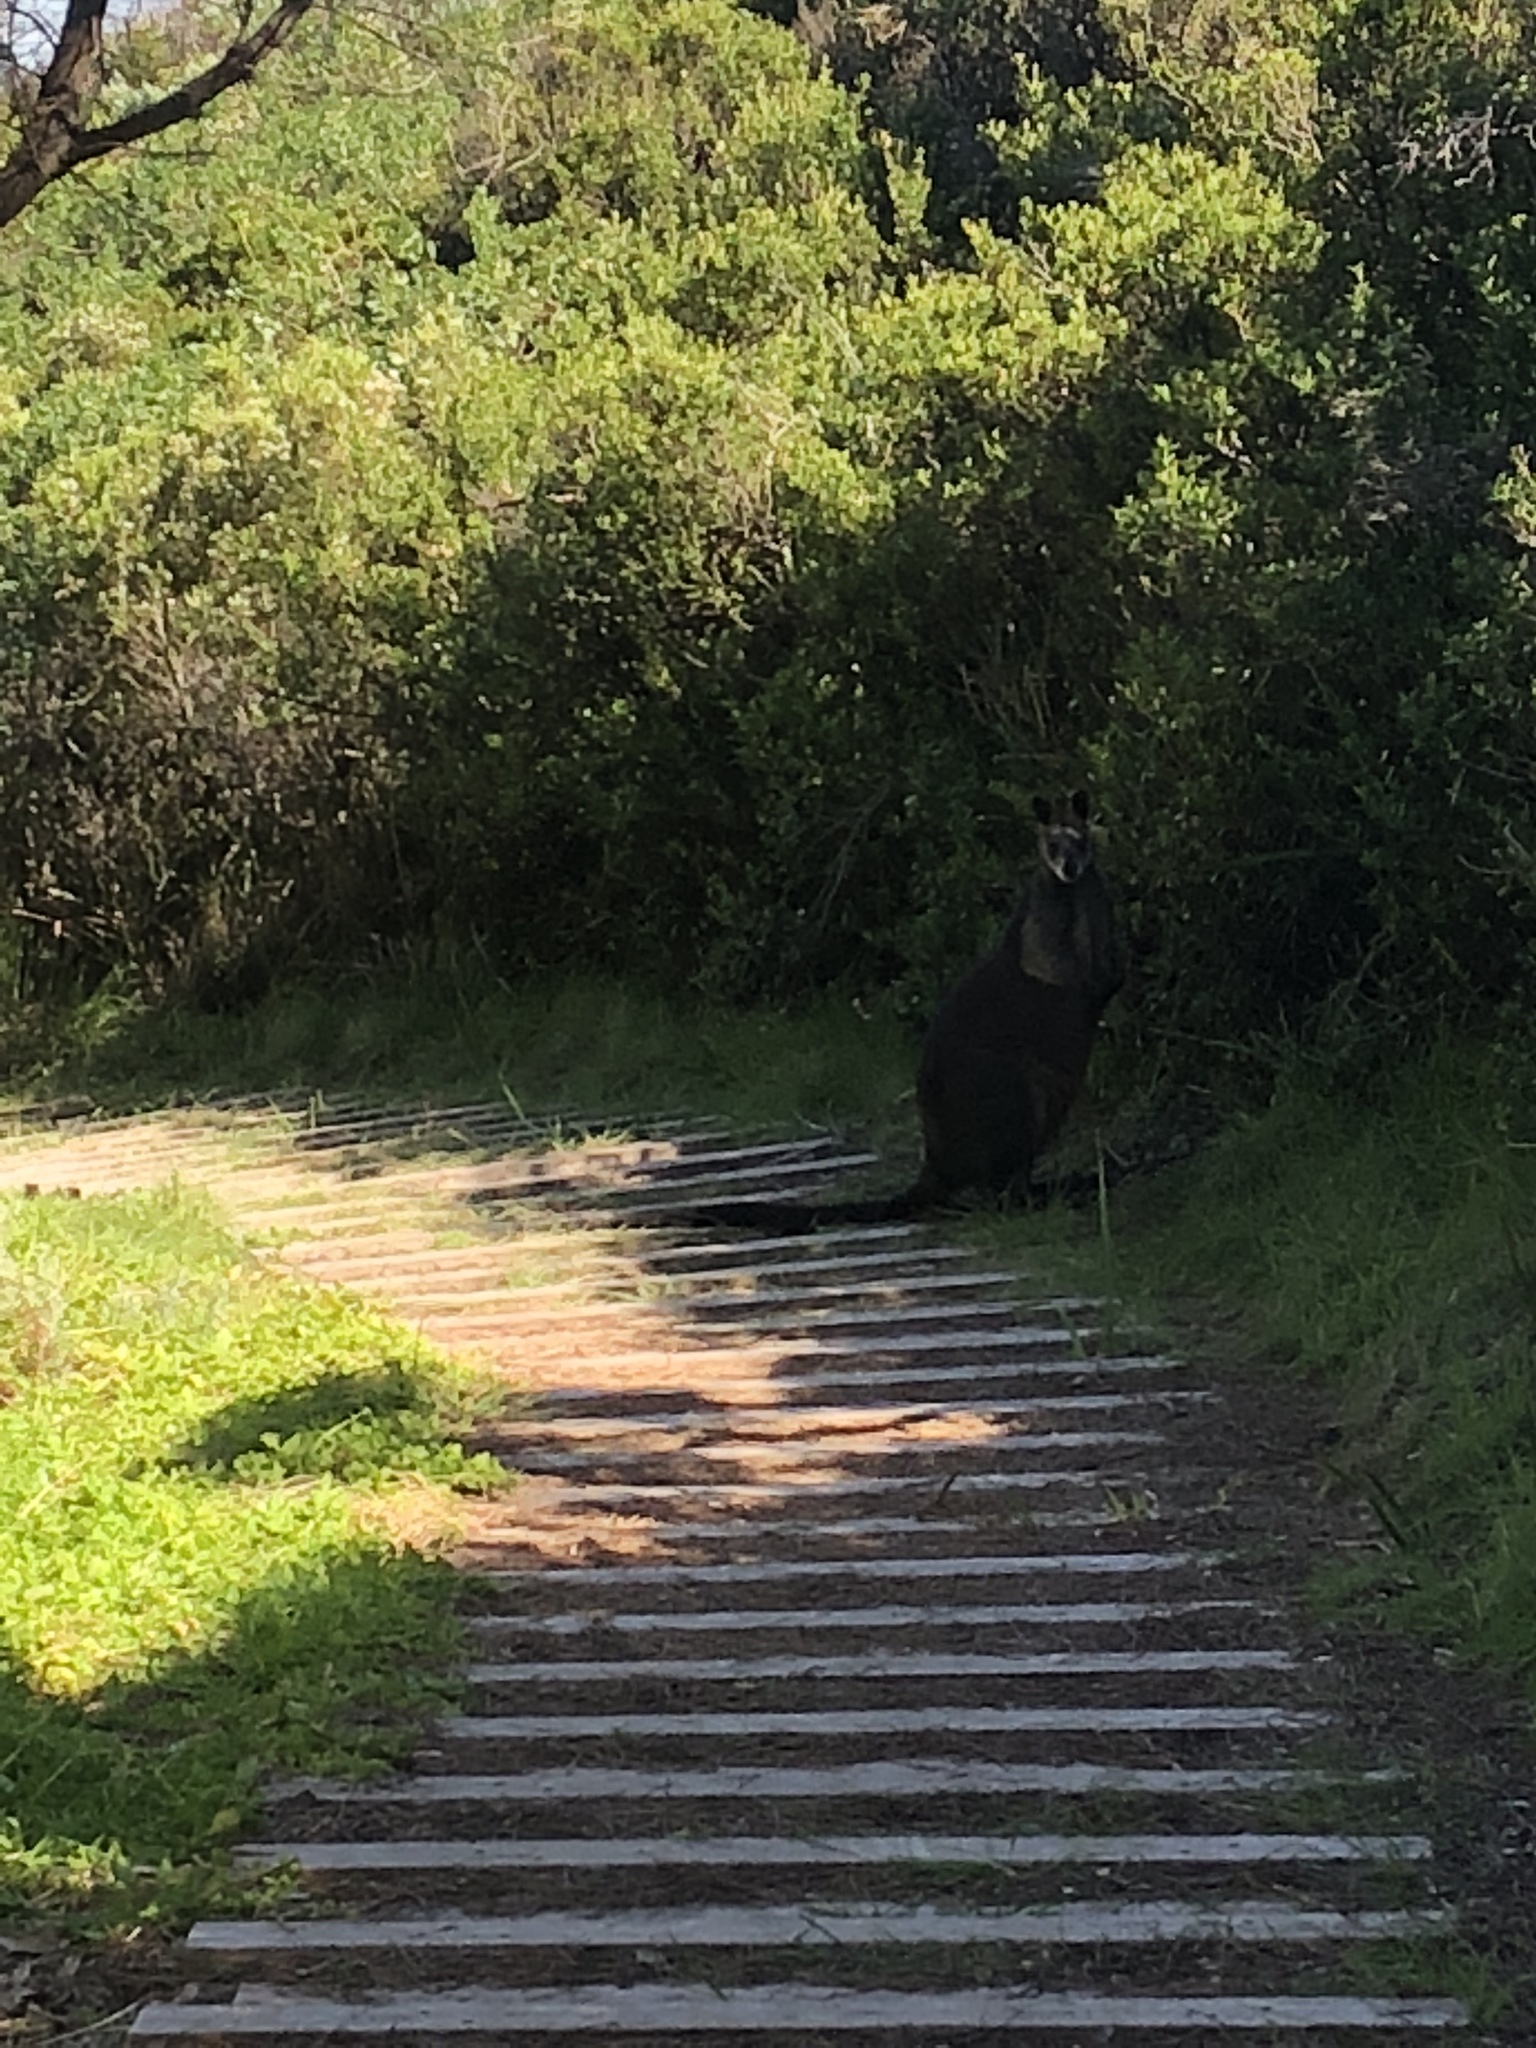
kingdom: Animalia
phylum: Chordata
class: Mammalia
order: Diprotodontia
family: Macropodidae
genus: Wallabia
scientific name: Wallabia bicolor
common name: Swamp wallaby
